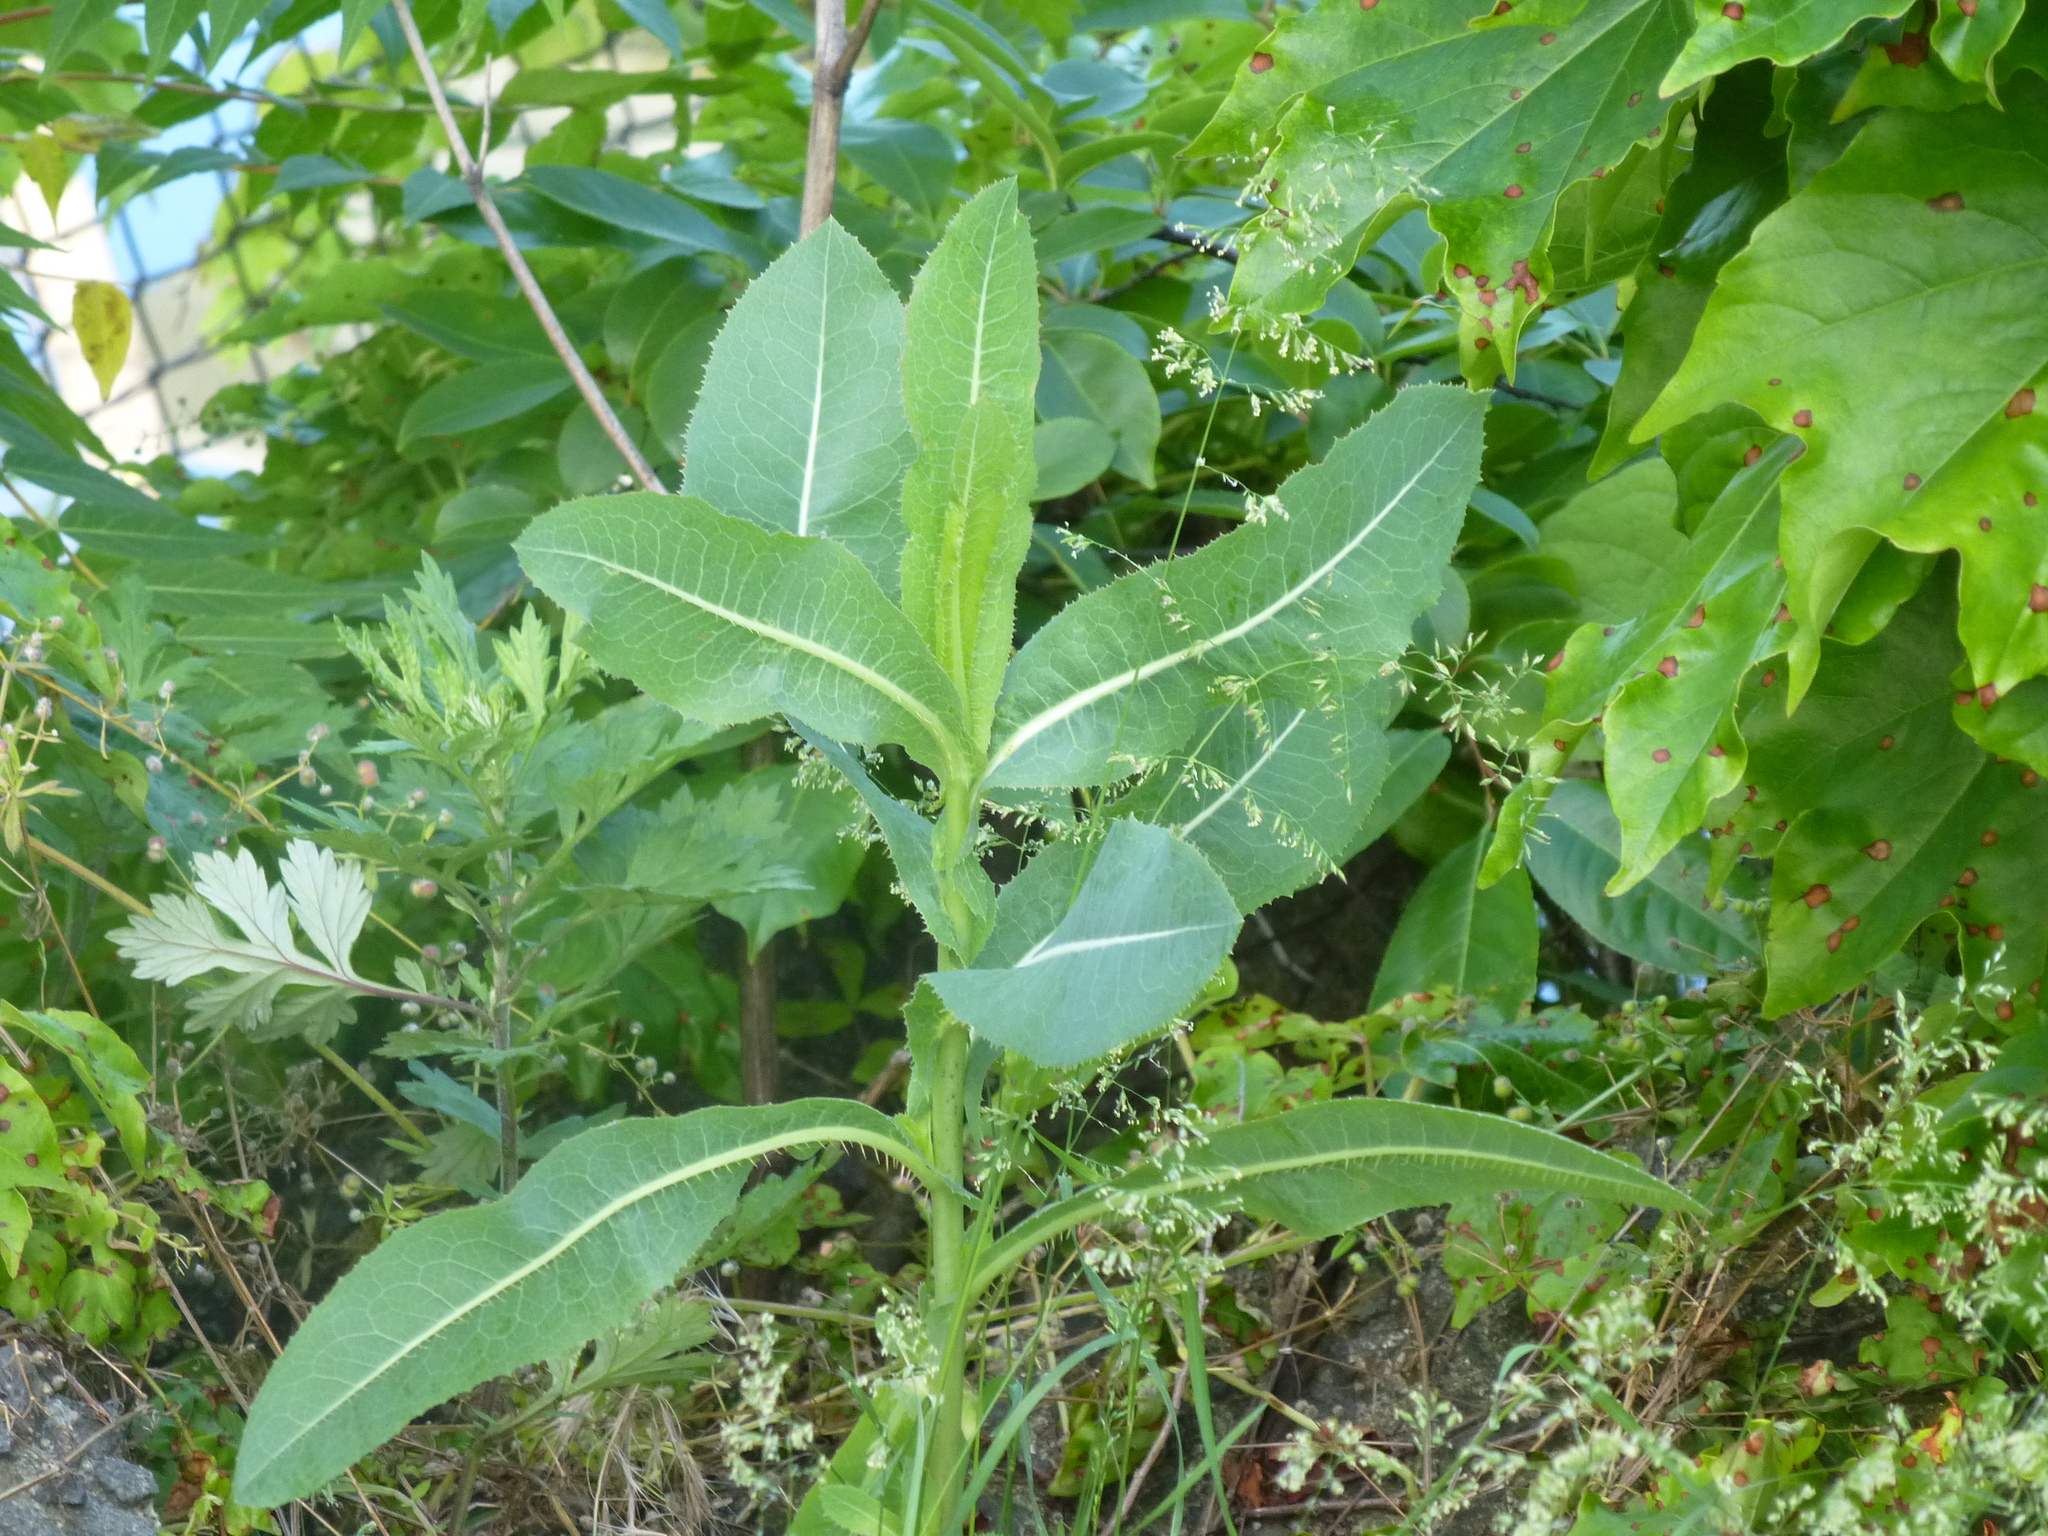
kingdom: Plantae
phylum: Tracheophyta
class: Magnoliopsida
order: Asterales
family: Asteraceae
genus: Lactuca
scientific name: Lactuca serriola
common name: Prickly lettuce
